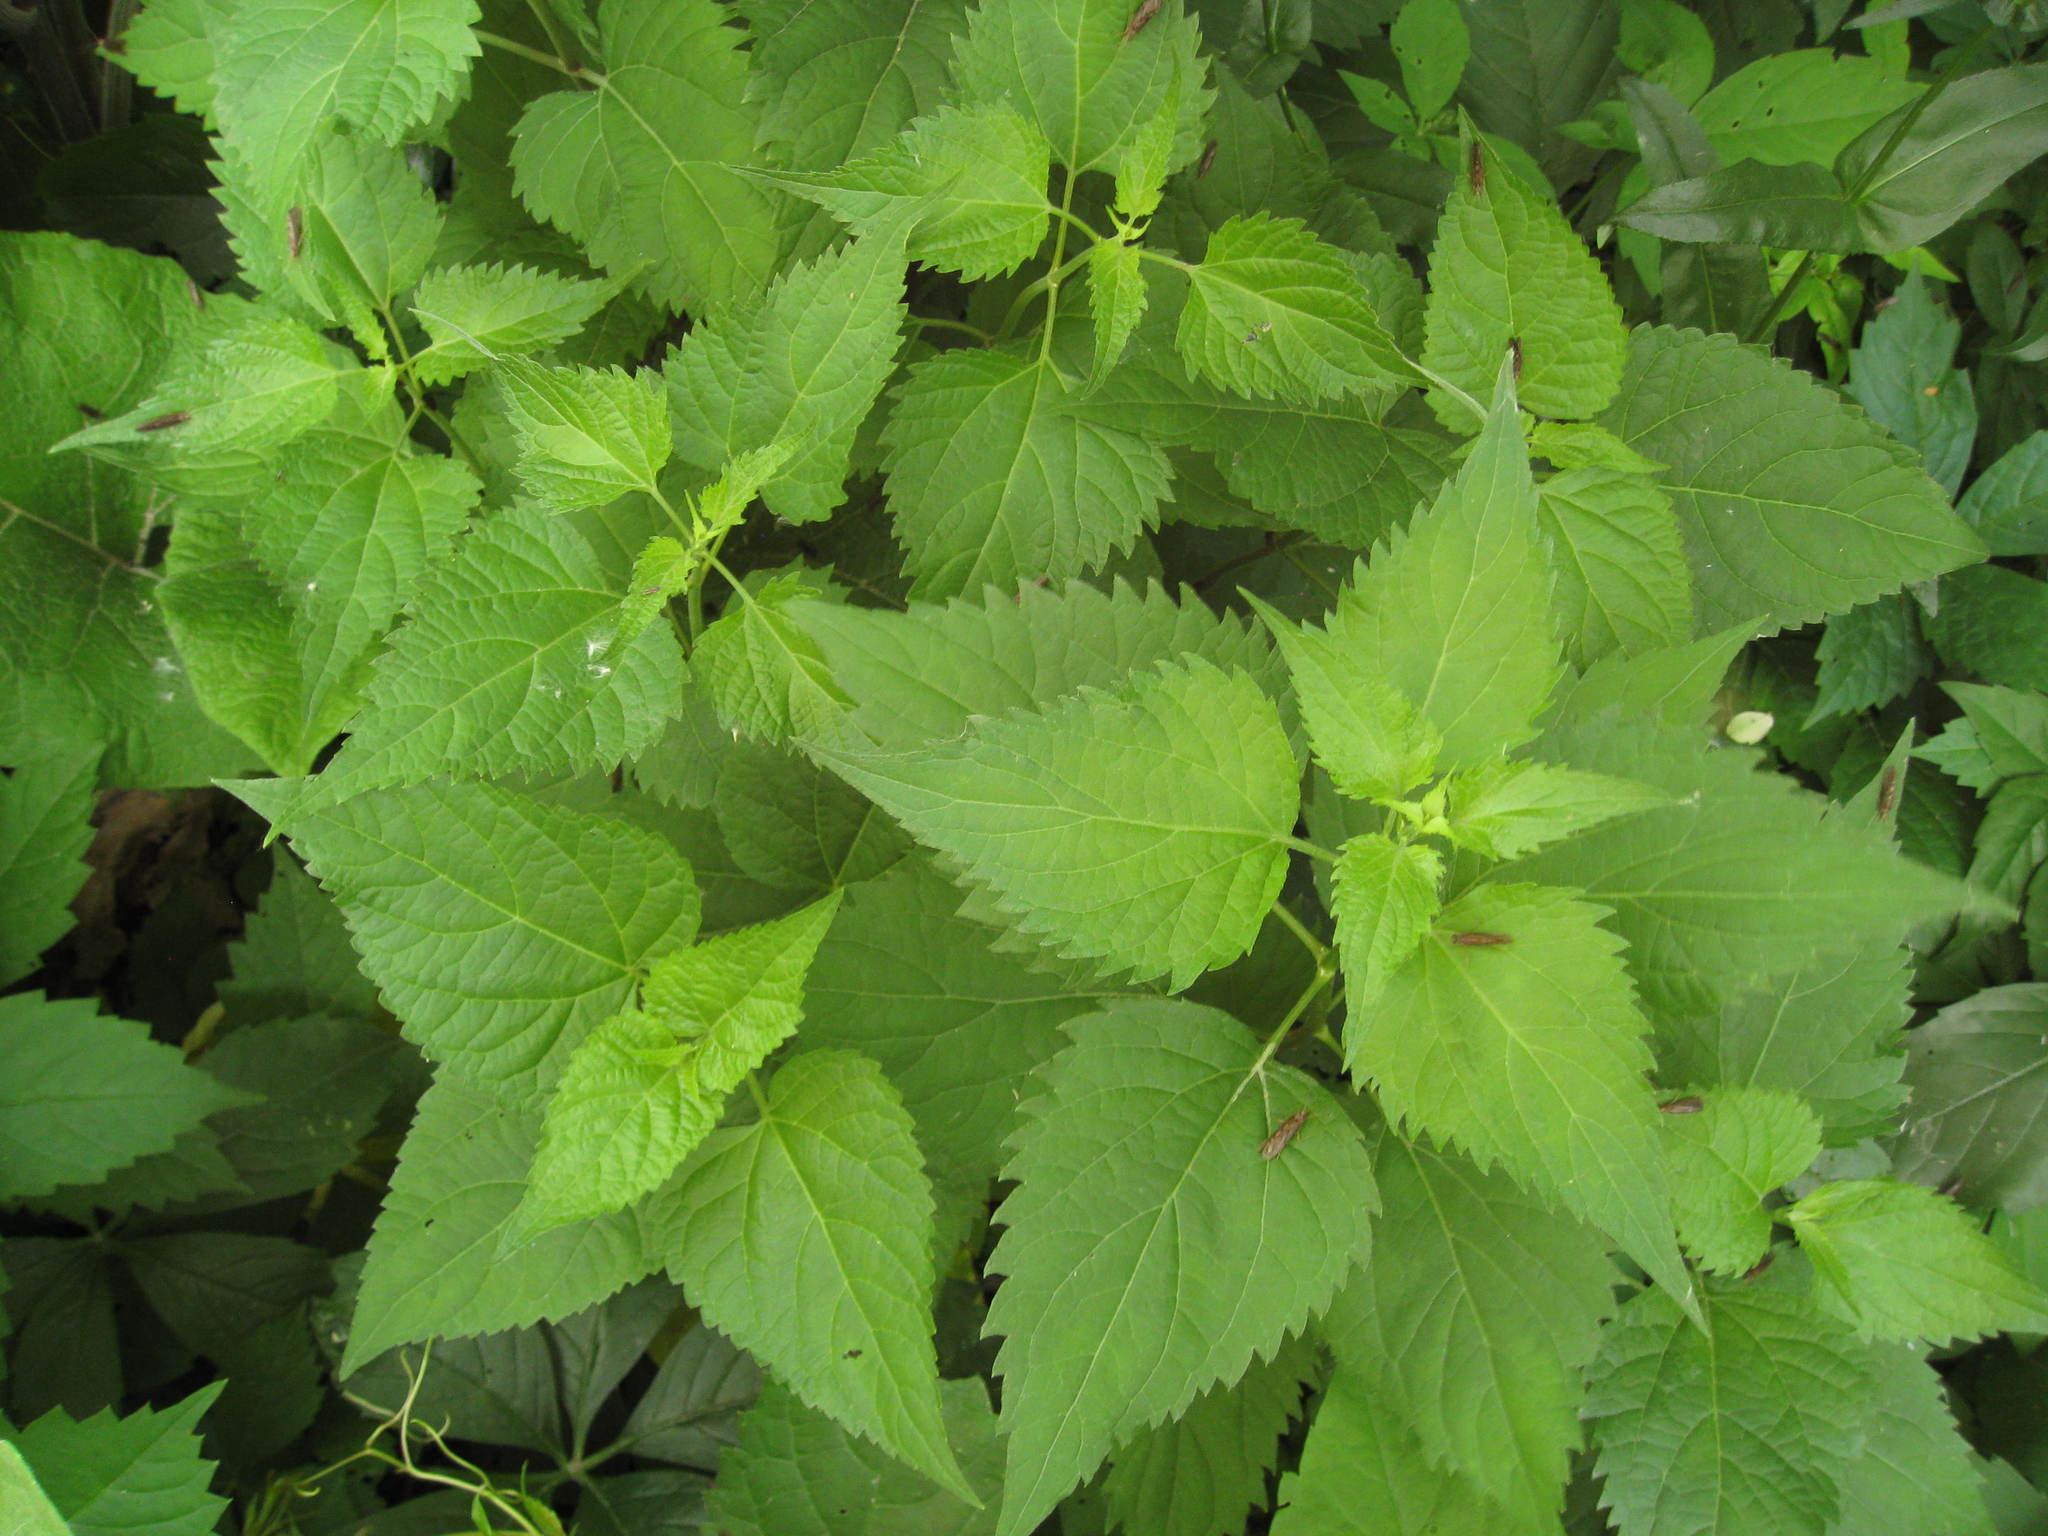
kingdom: Plantae
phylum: Tracheophyta
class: Magnoliopsida
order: Asterales
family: Asteraceae
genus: Ageratina
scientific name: Ageratina altissima
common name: White snakeroot
